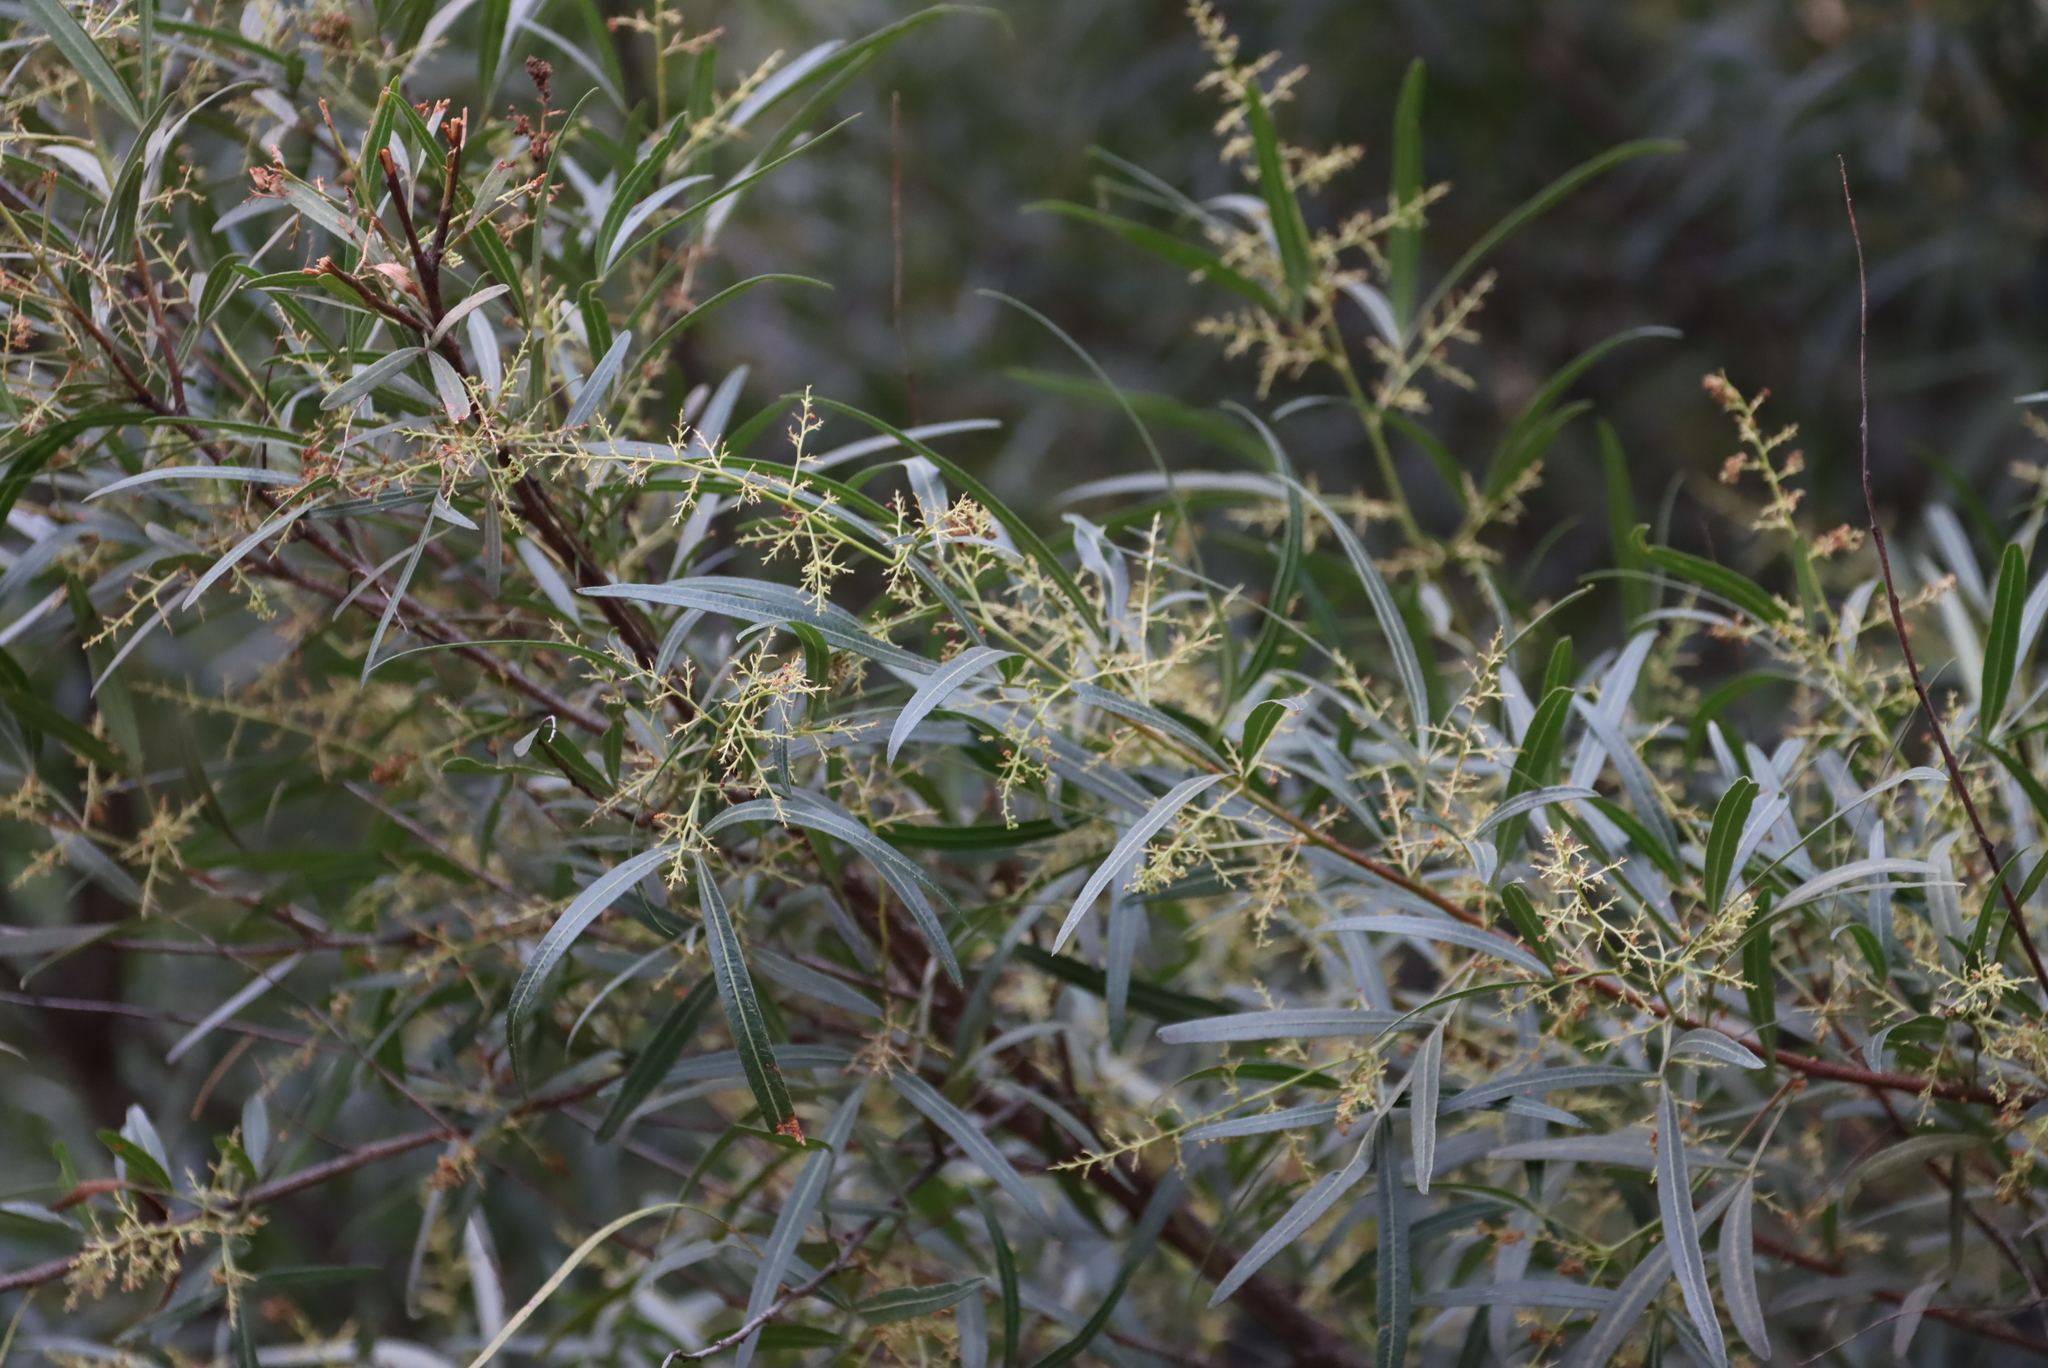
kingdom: Plantae
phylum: Tracheophyta
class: Magnoliopsida
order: Sapindales
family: Anacardiaceae
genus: Searsia
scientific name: Searsia lancea
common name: Cashew
